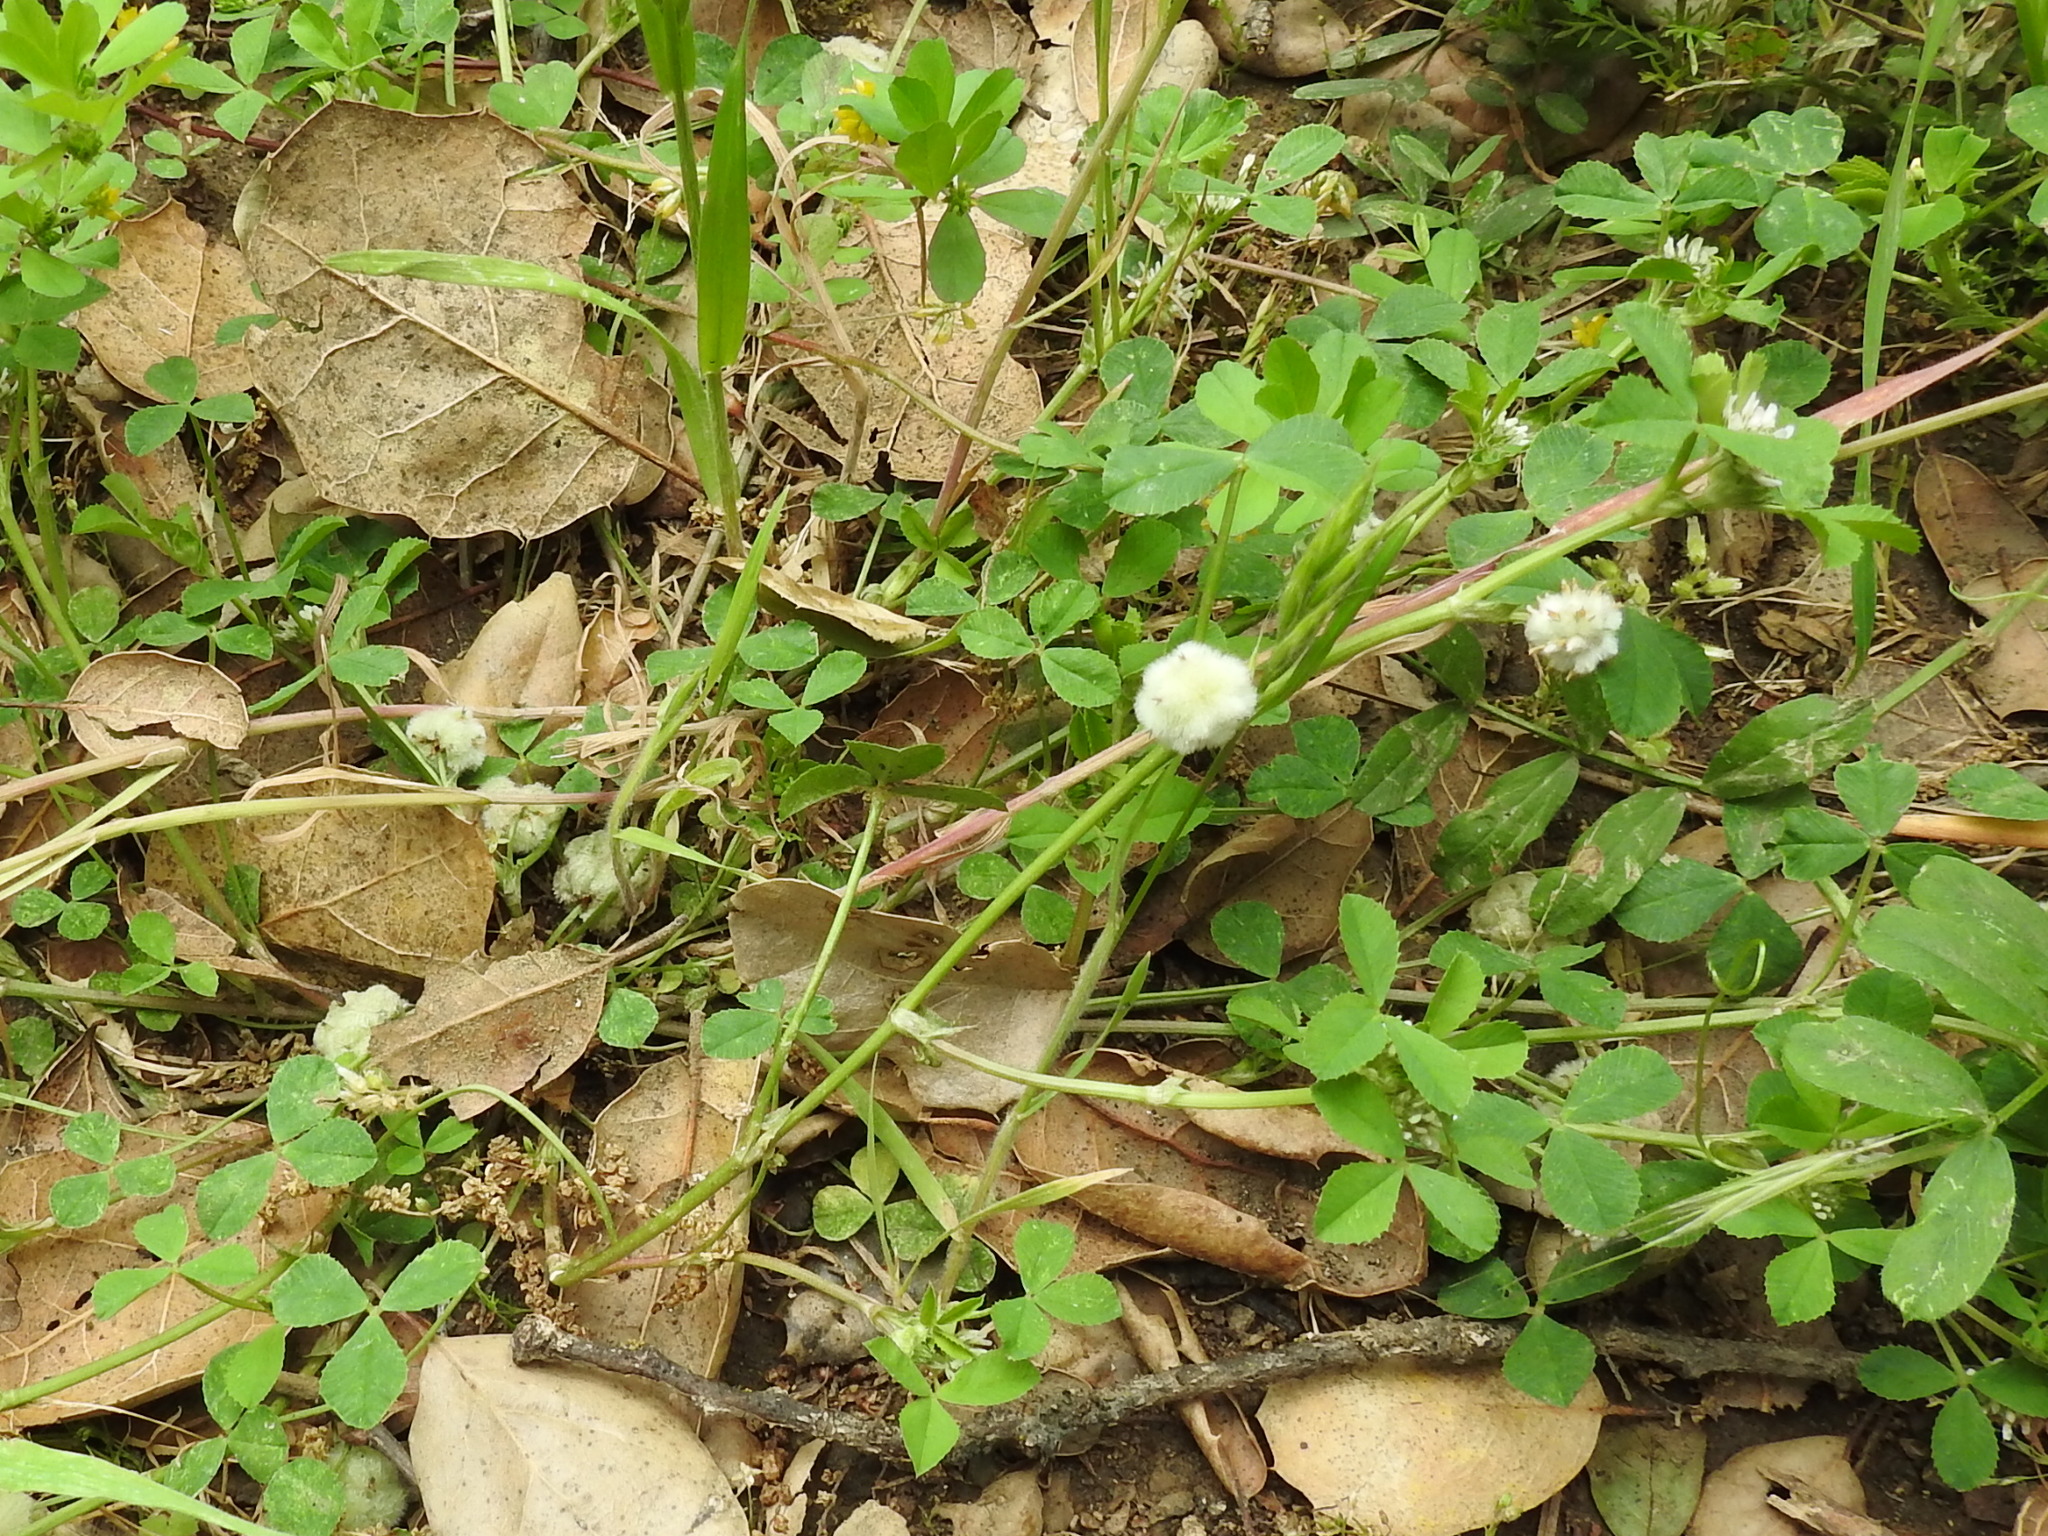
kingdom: Plantae
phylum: Tracheophyta
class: Magnoliopsida
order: Fabales
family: Fabaceae
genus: Trifolium
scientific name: Trifolium tomentosum
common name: Woolly clover
